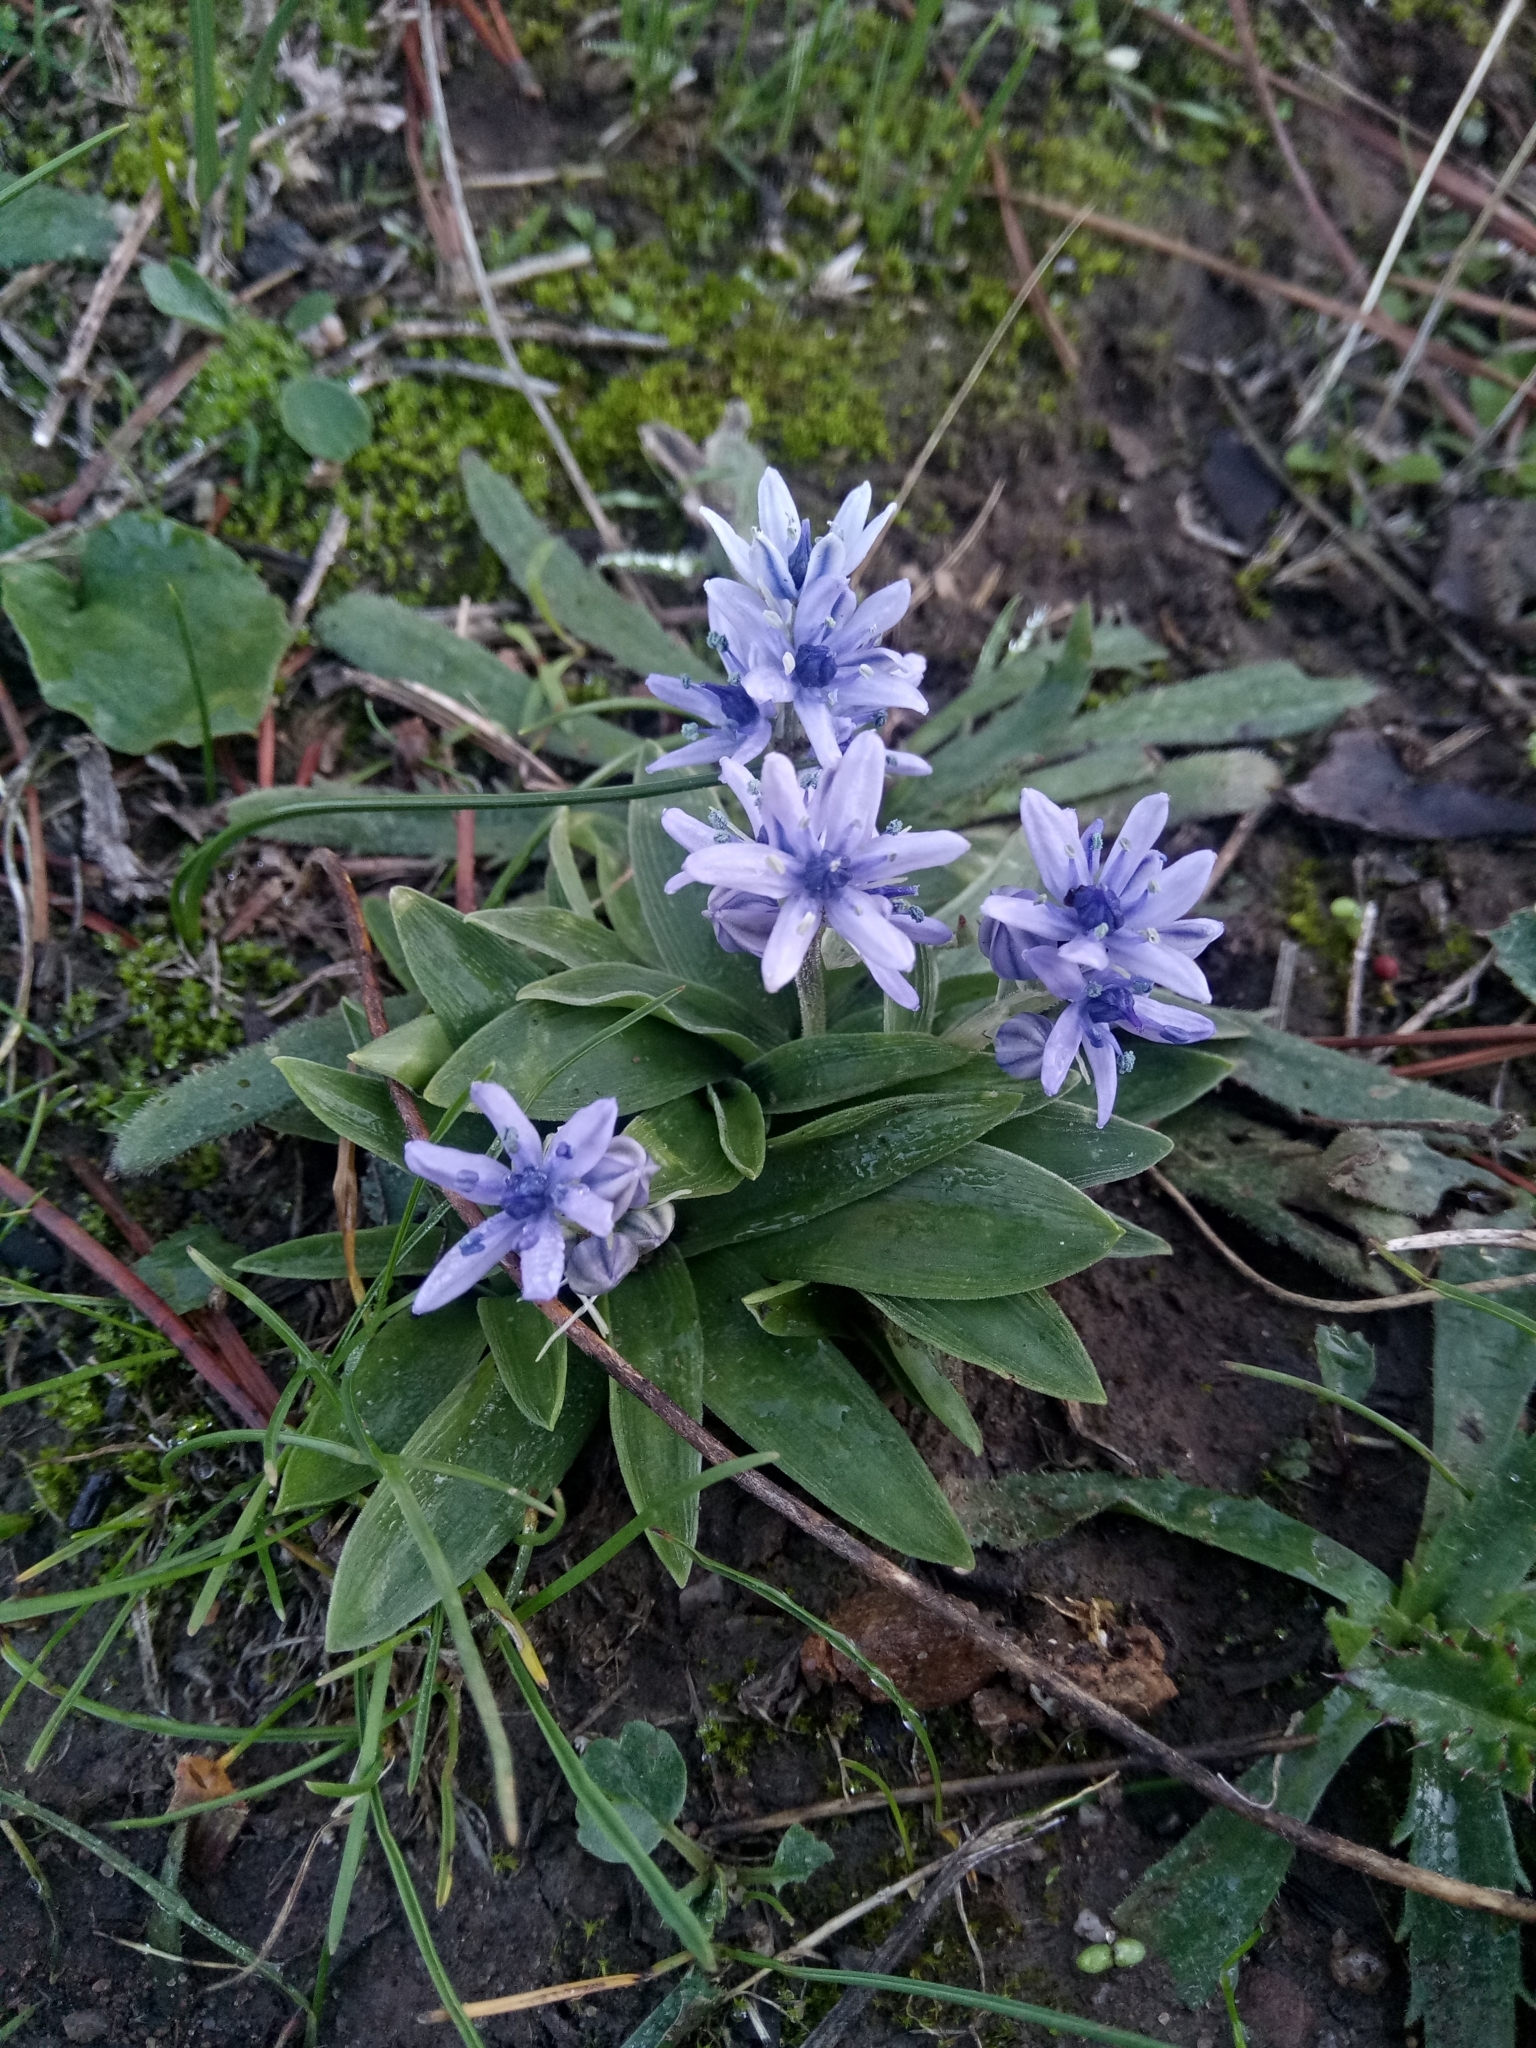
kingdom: Plantae
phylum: Tracheophyta
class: Liliopsida
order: Asparagales
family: Asparagaceae
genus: Hyacinthoides
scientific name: Hyacinthoides lingulata
